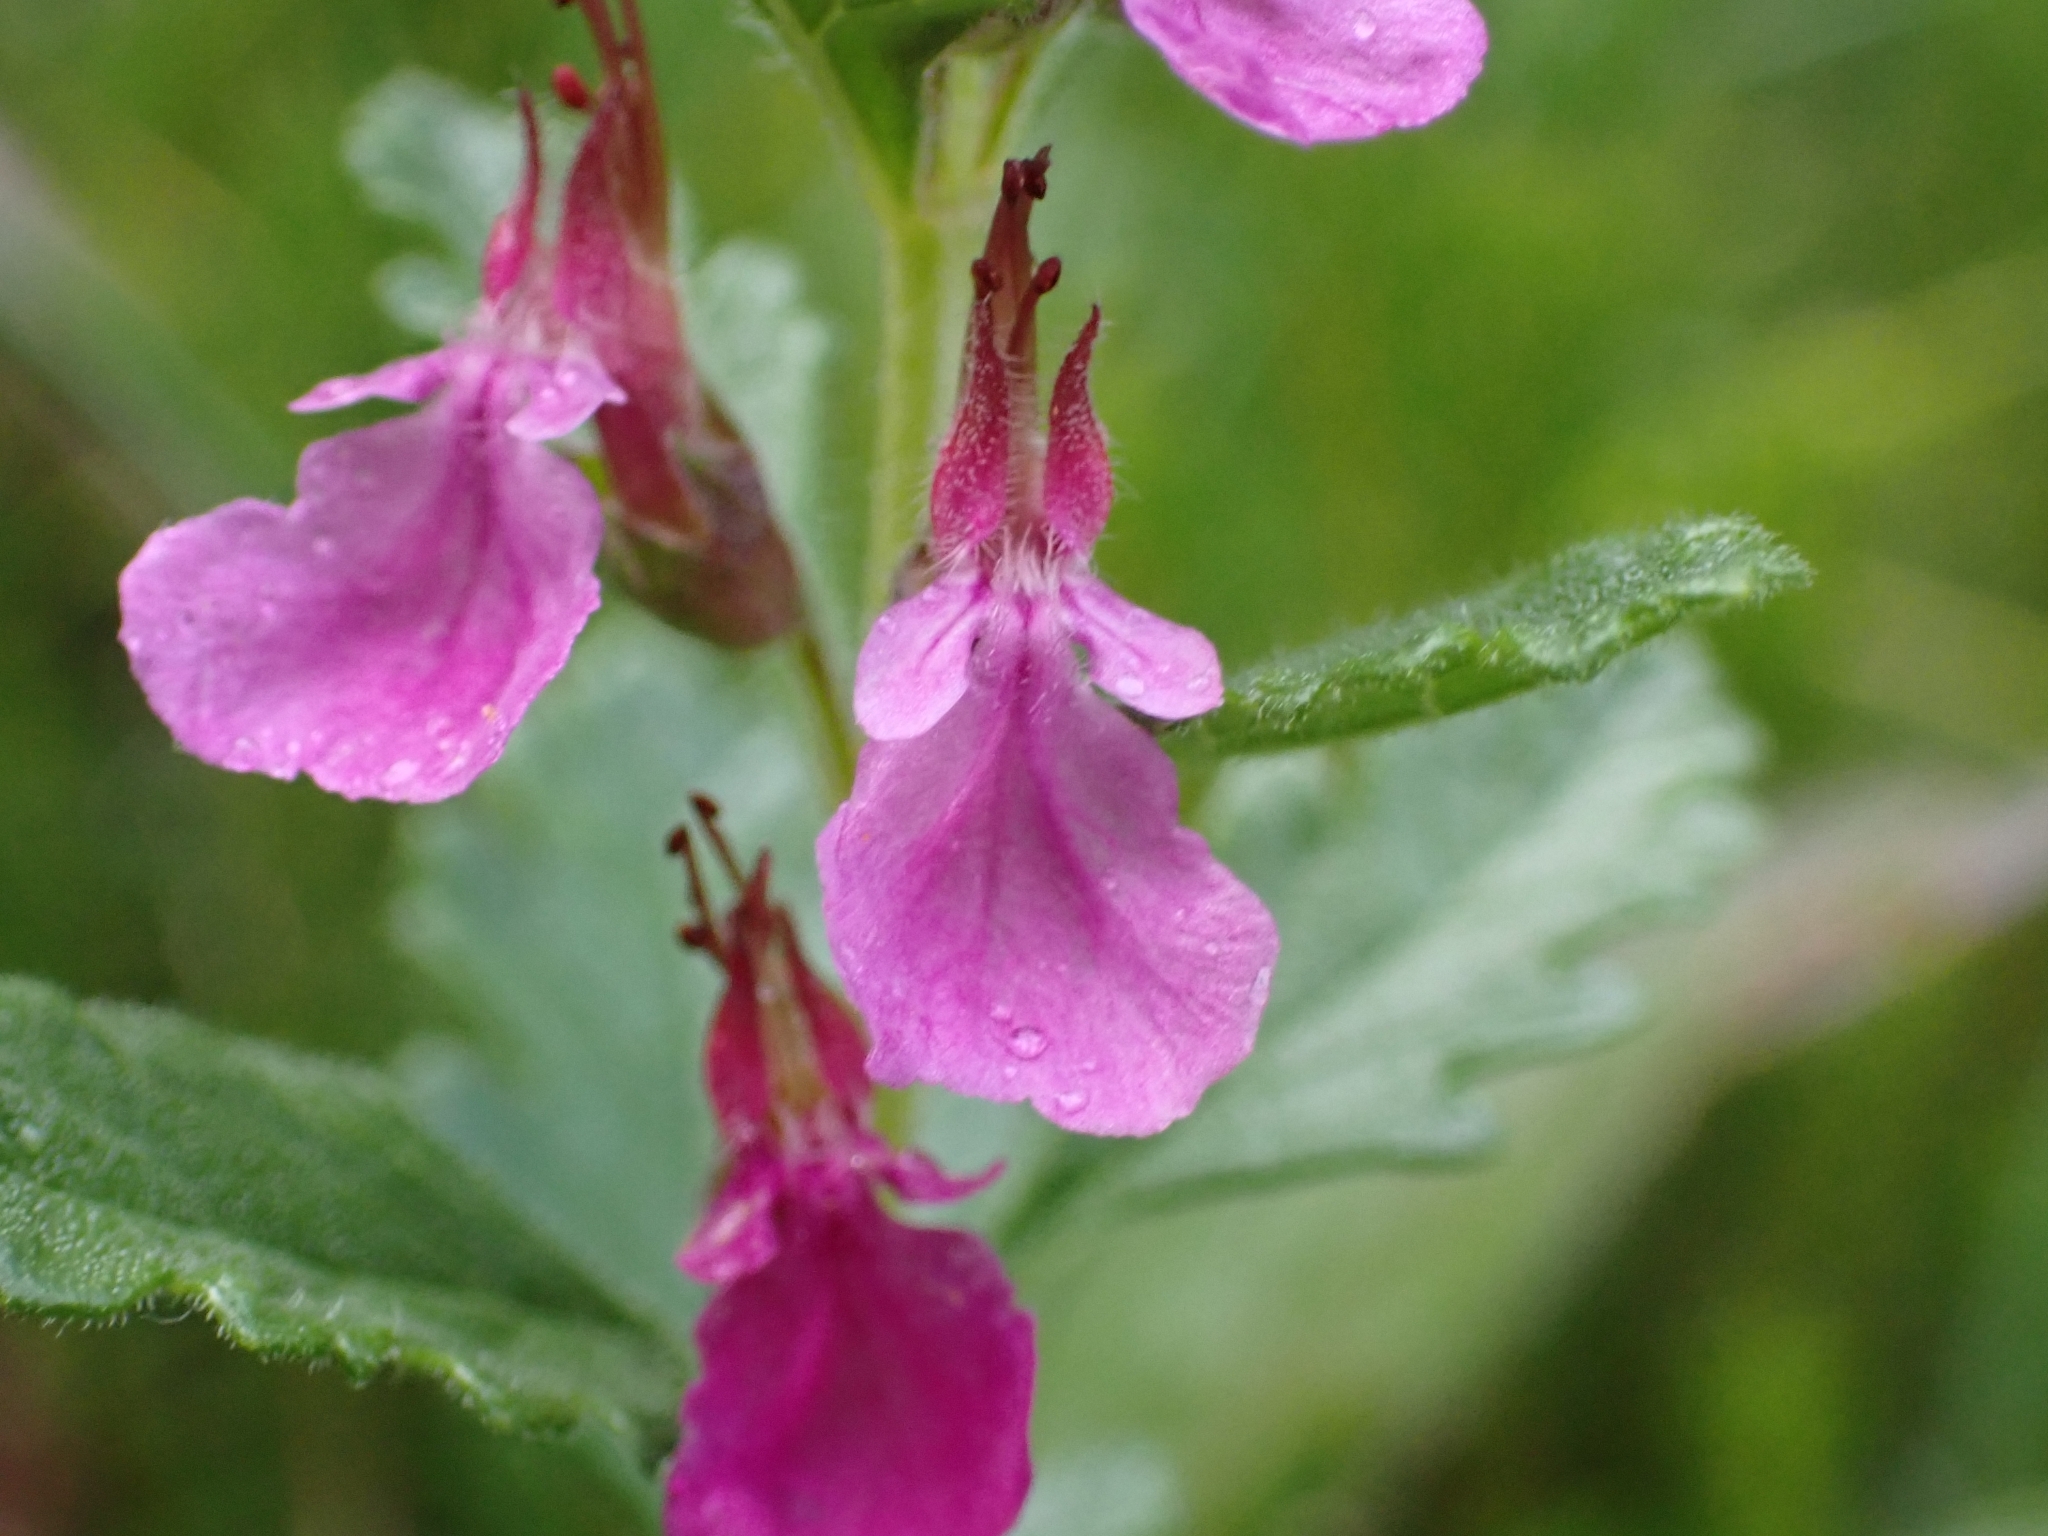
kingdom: Plantae
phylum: Tracheophyta
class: Magnoliopsida
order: Lamiales
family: Lamiaceae
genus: Teucrium
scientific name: Teucrium chamaedrys
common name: Wall germander
